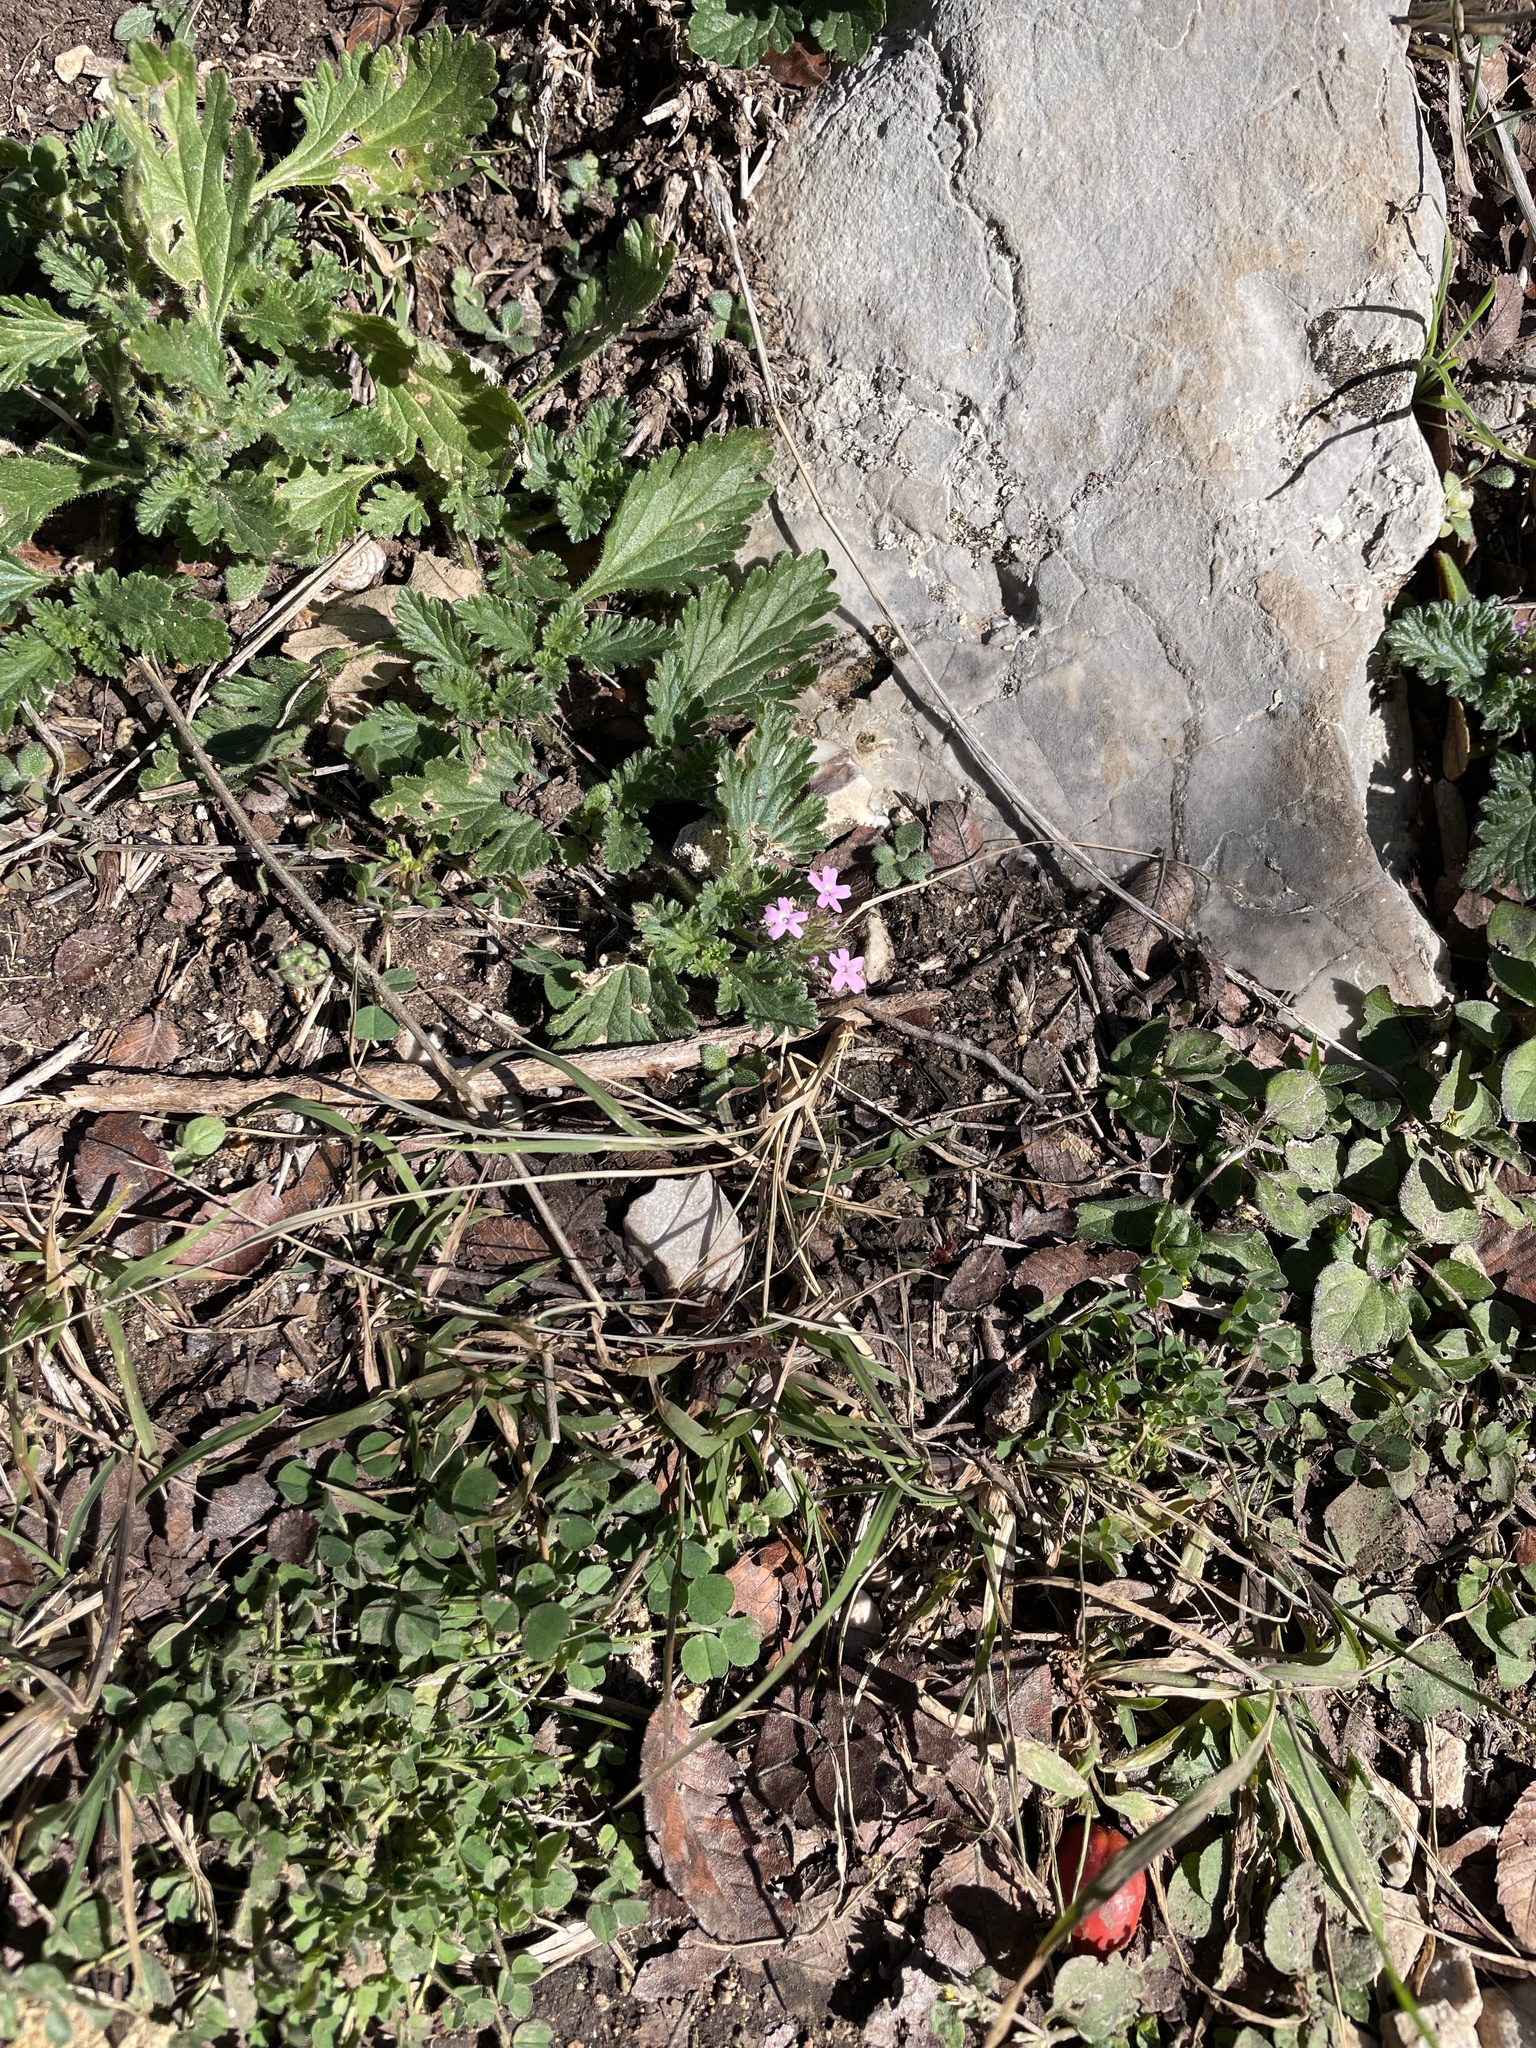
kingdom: Plantae
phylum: Tracheophyta
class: Magnoliopsida
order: Lamiales
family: Verbenaceae
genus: Verbena
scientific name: Verbena pumila
